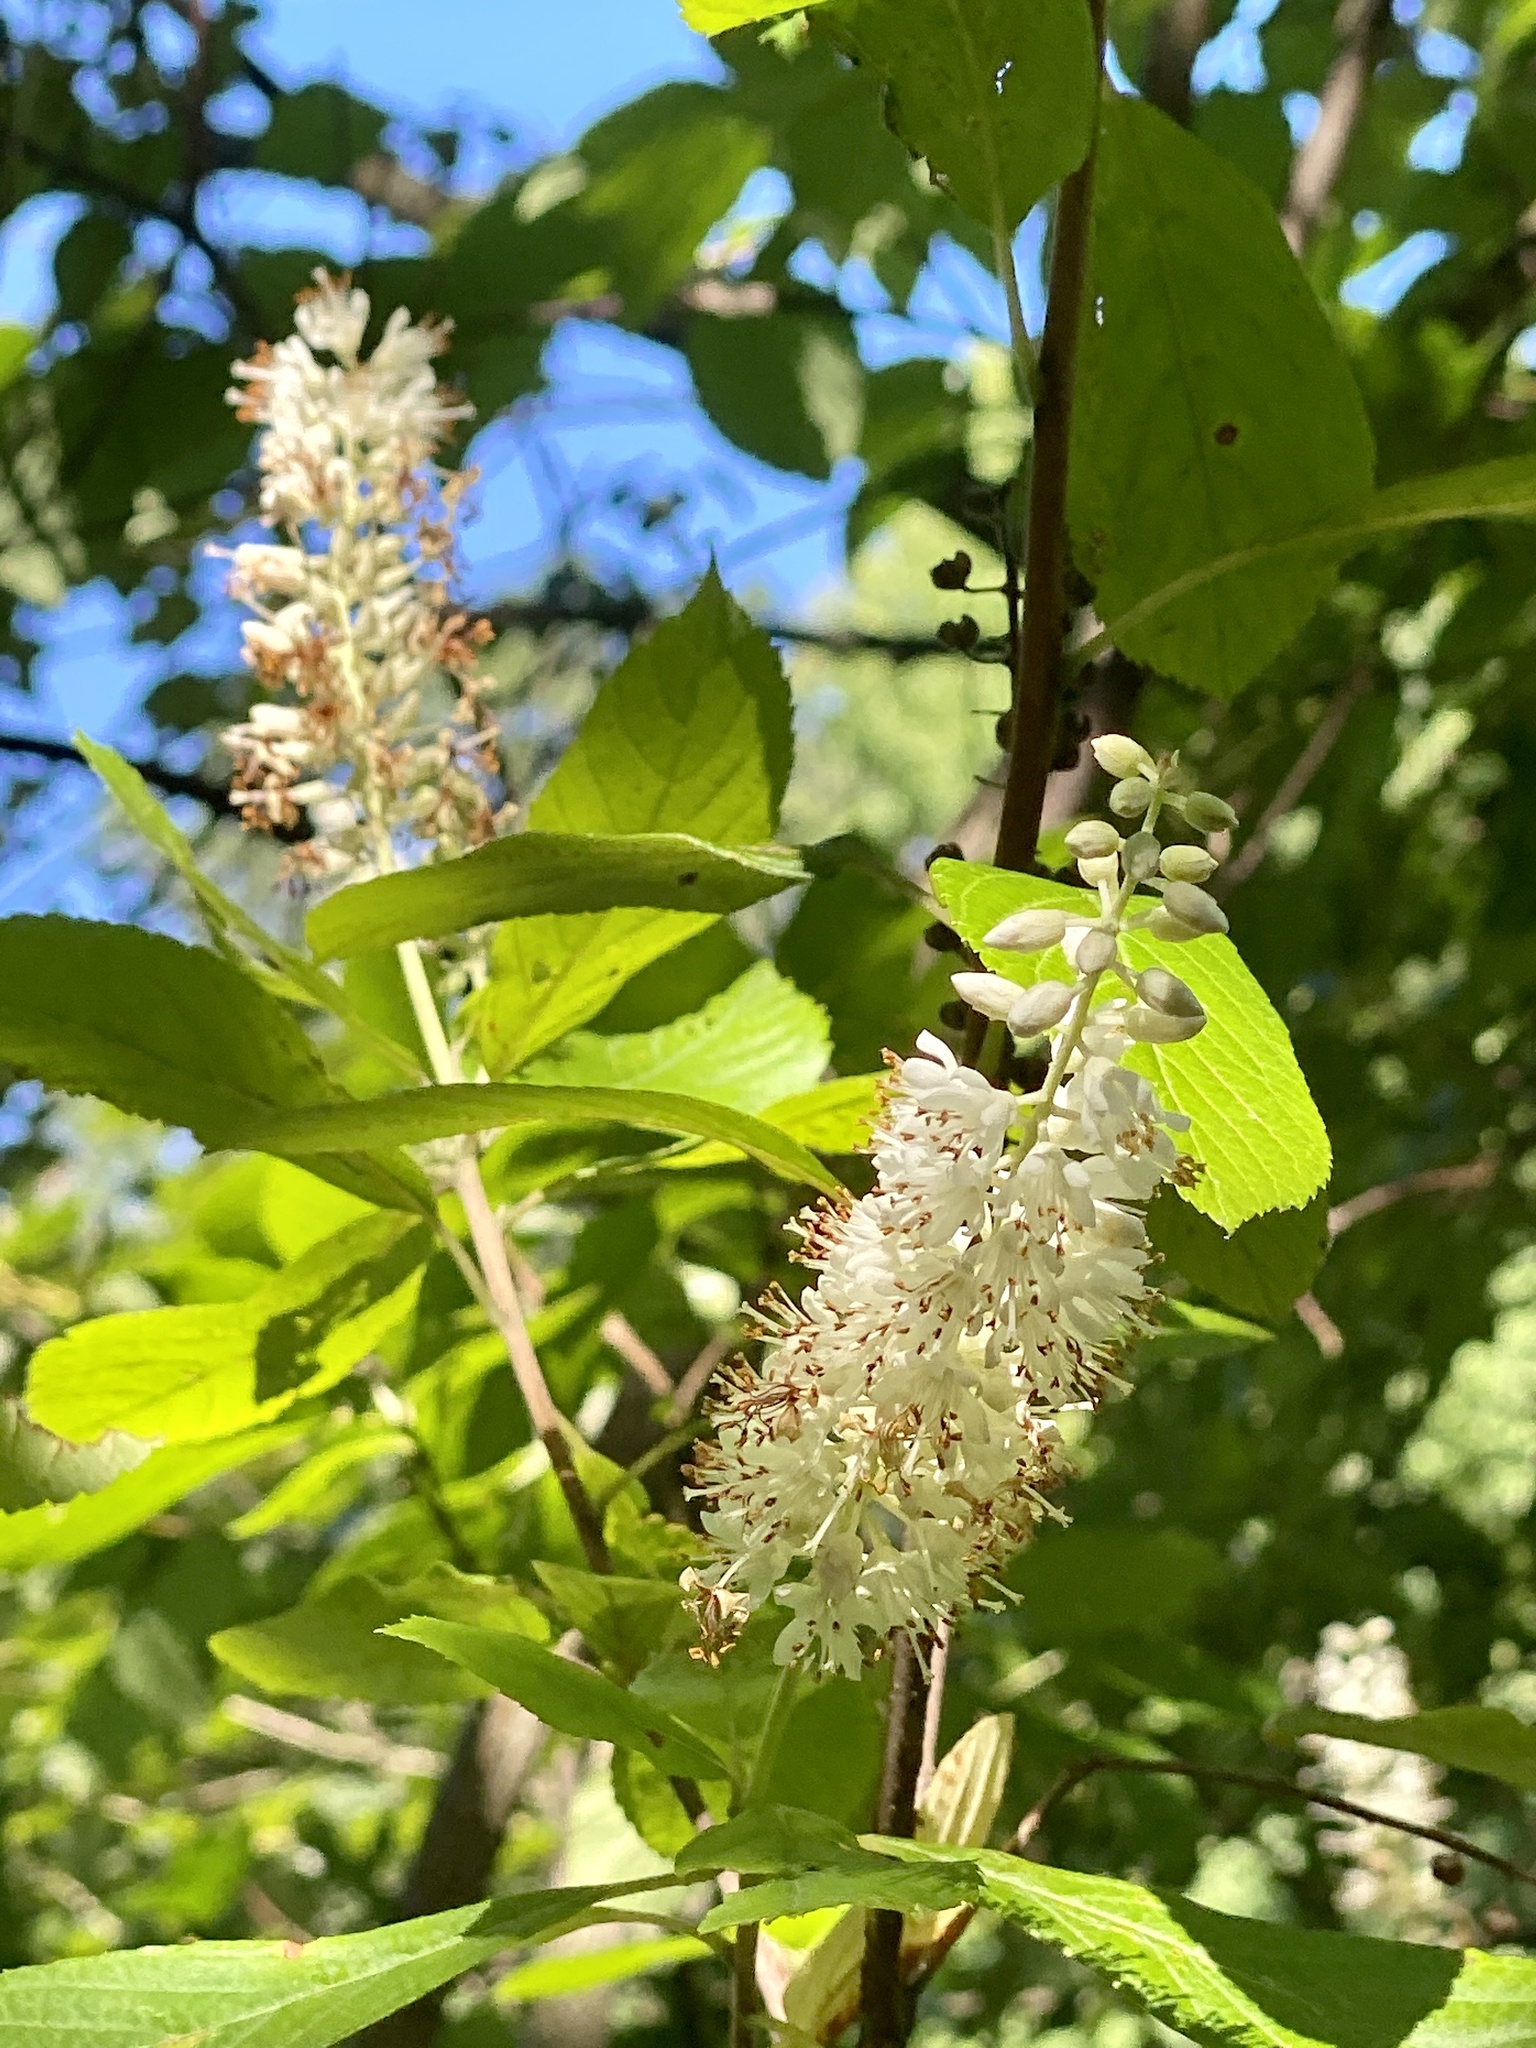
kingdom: Plantae
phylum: Tracheophyta
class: Magnoliopsida
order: Ericales
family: Clethraceae
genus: Clethra
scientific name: Clethra alnifolia
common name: Sweet pepperbush
